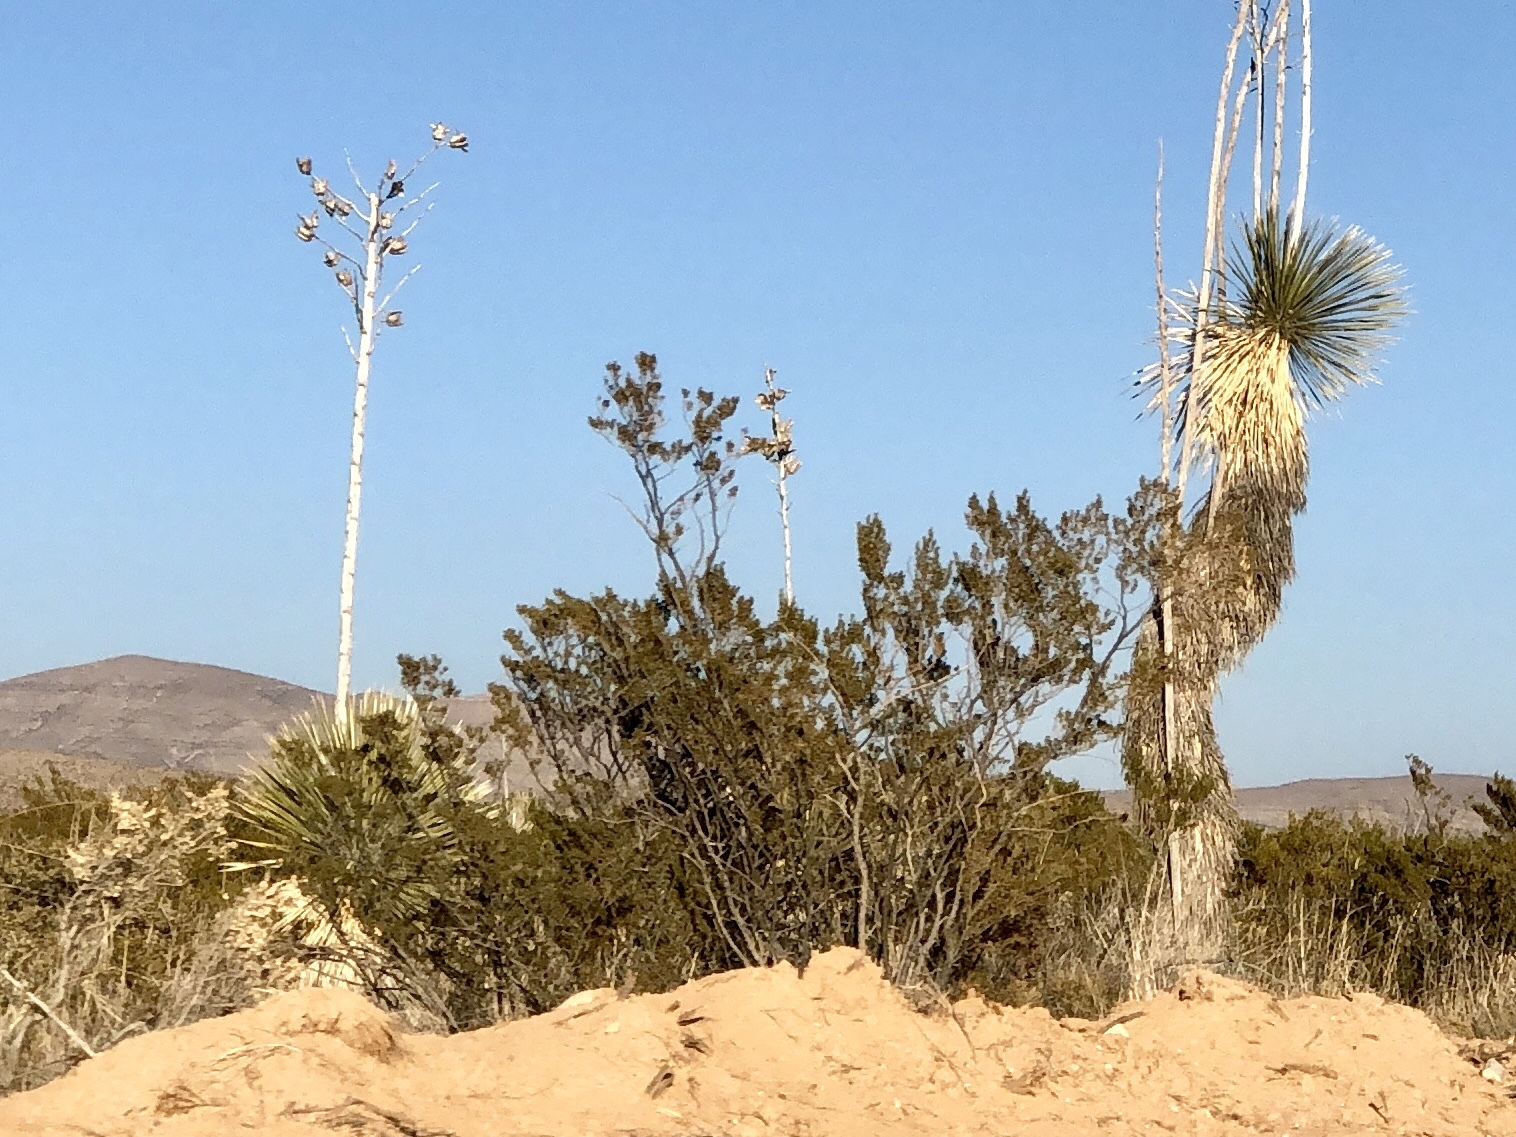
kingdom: Plantae
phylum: Tracheophyta
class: Magnoliopsida
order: Zygophyllales
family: Zygophyllaceae
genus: Larrea
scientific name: Larrea tridentata
